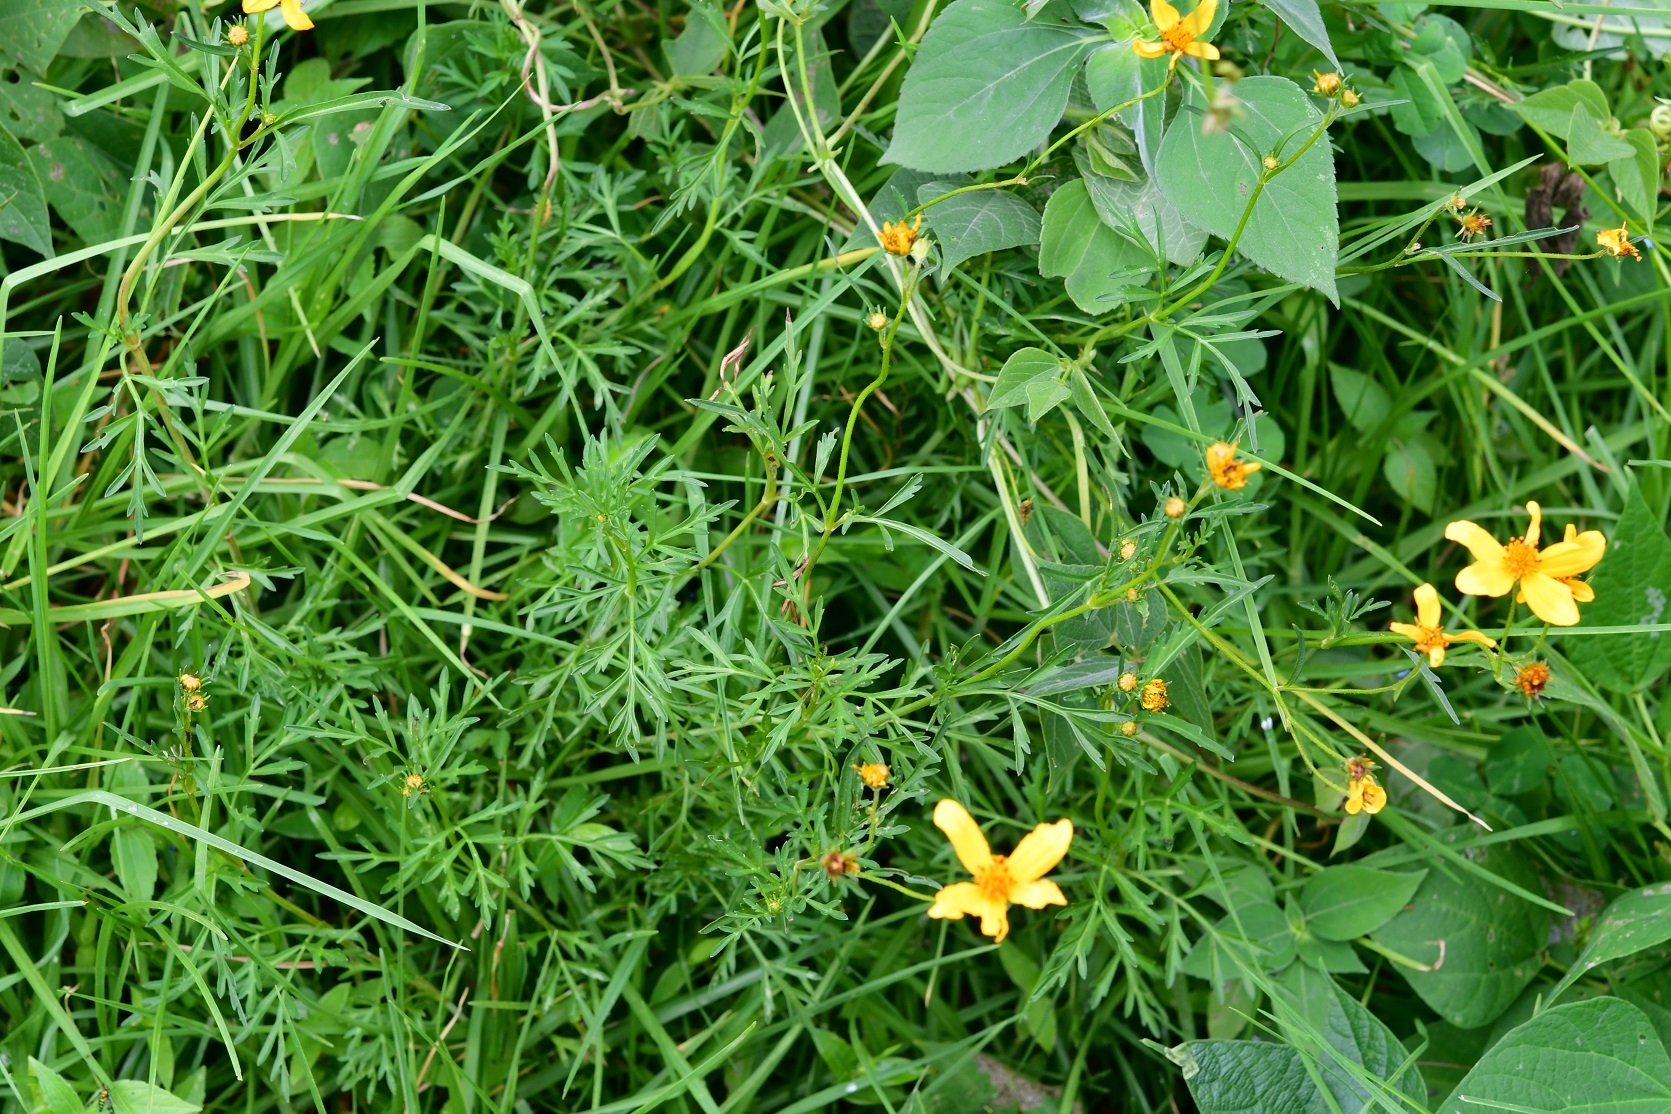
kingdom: Plantae
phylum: Tracheophyta
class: Magnoliopsida
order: Asterales
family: Asteraceae
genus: Bidens
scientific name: Bidens triplinervia
